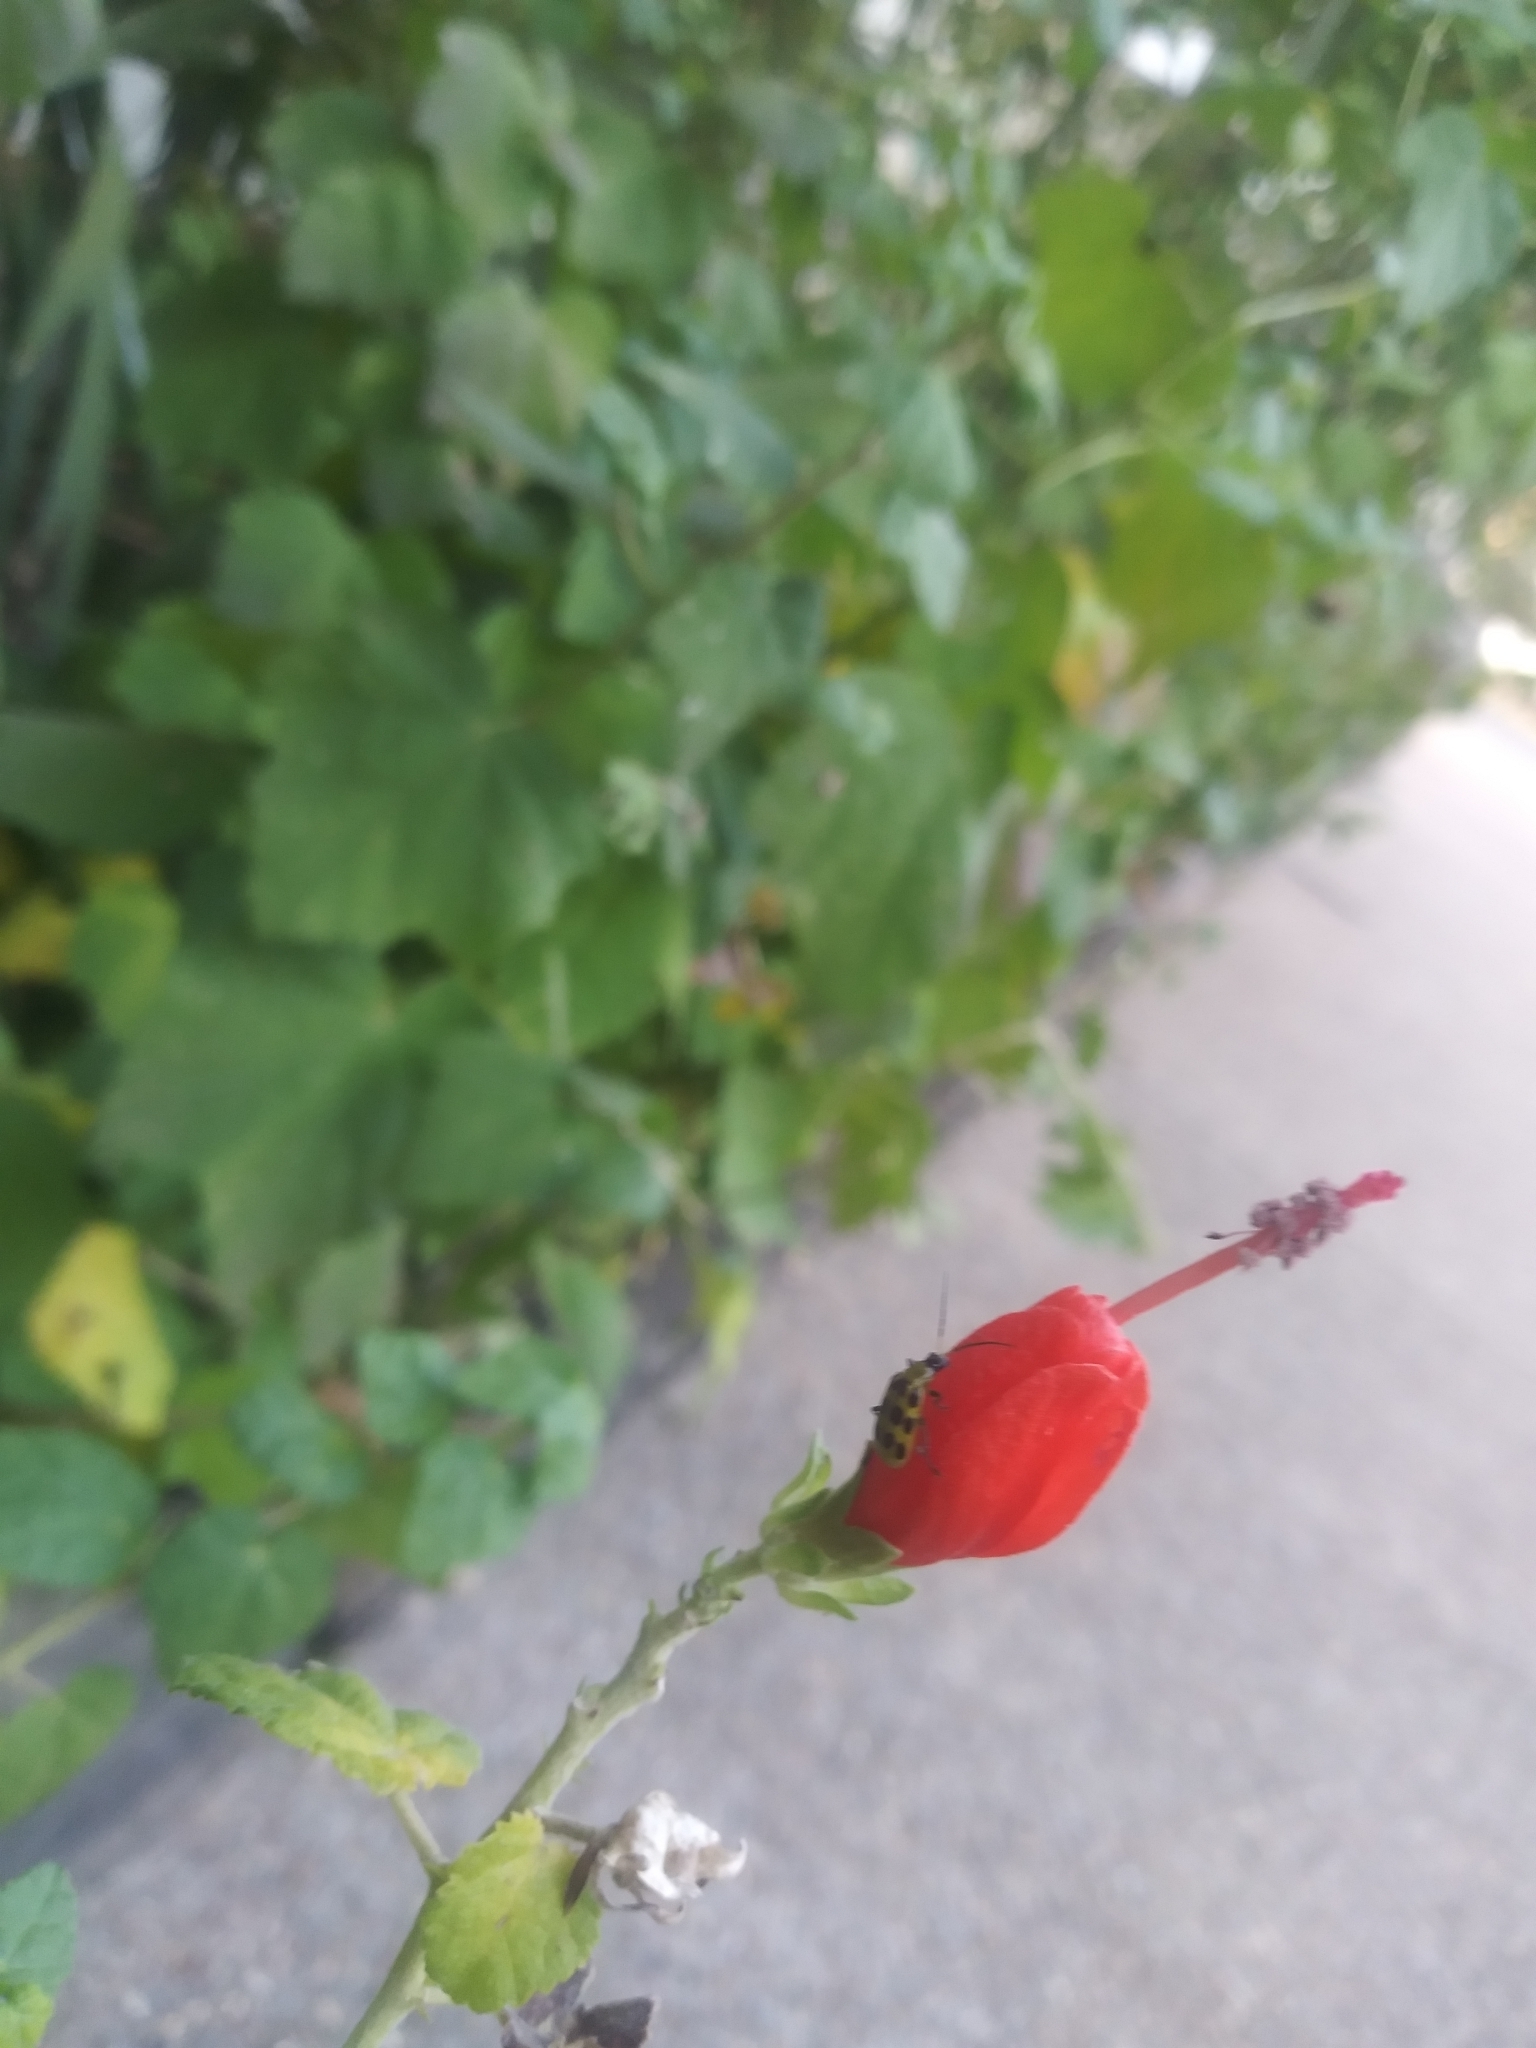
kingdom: Animalia
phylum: Arthropoda
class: Insecta
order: Coleoptera
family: Chrysomelidae
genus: Diabrotica
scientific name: Diabrotica undecimpunctata
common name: Spotted cucumber beetle
